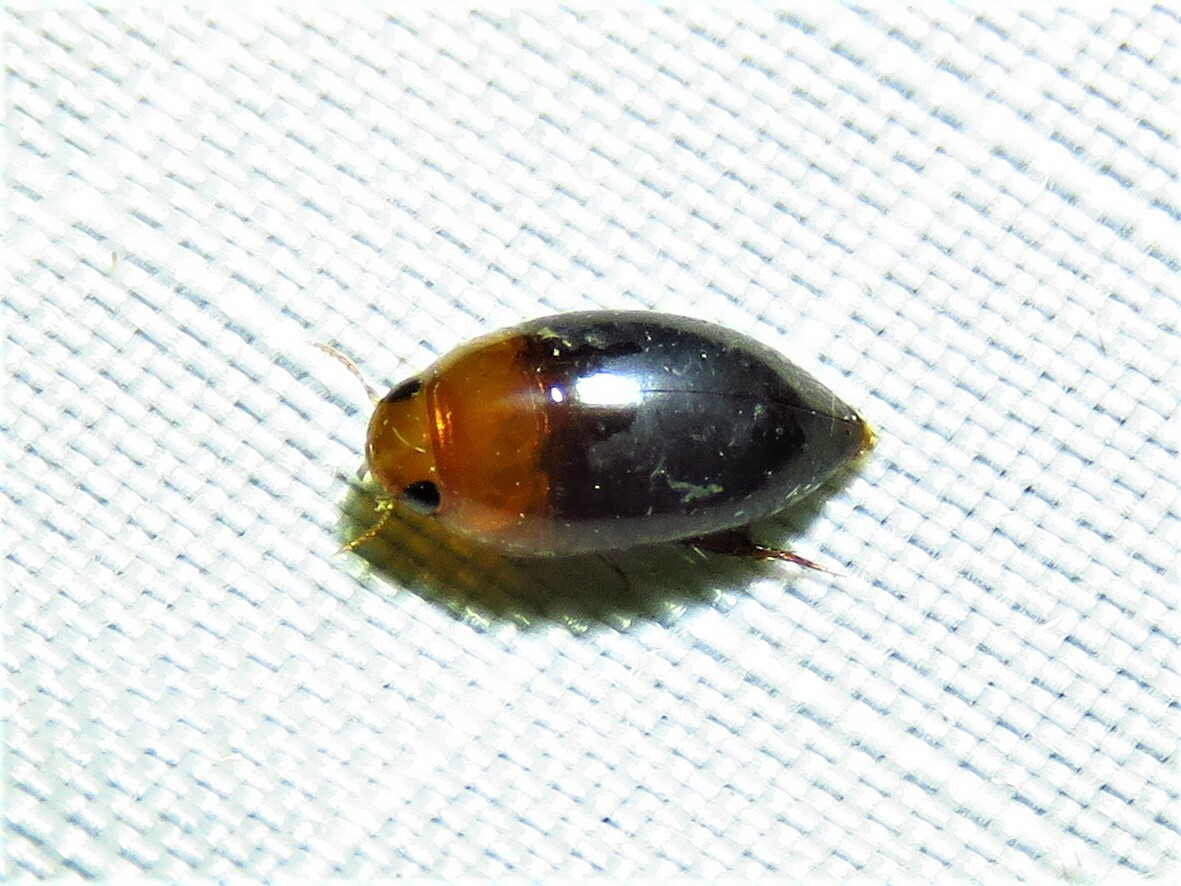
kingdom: Animalia
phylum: Arthropoda
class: Insecta
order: Coleoptera
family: Noteridae
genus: Hydrocanthus
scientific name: Hydrocanthus atripennis
